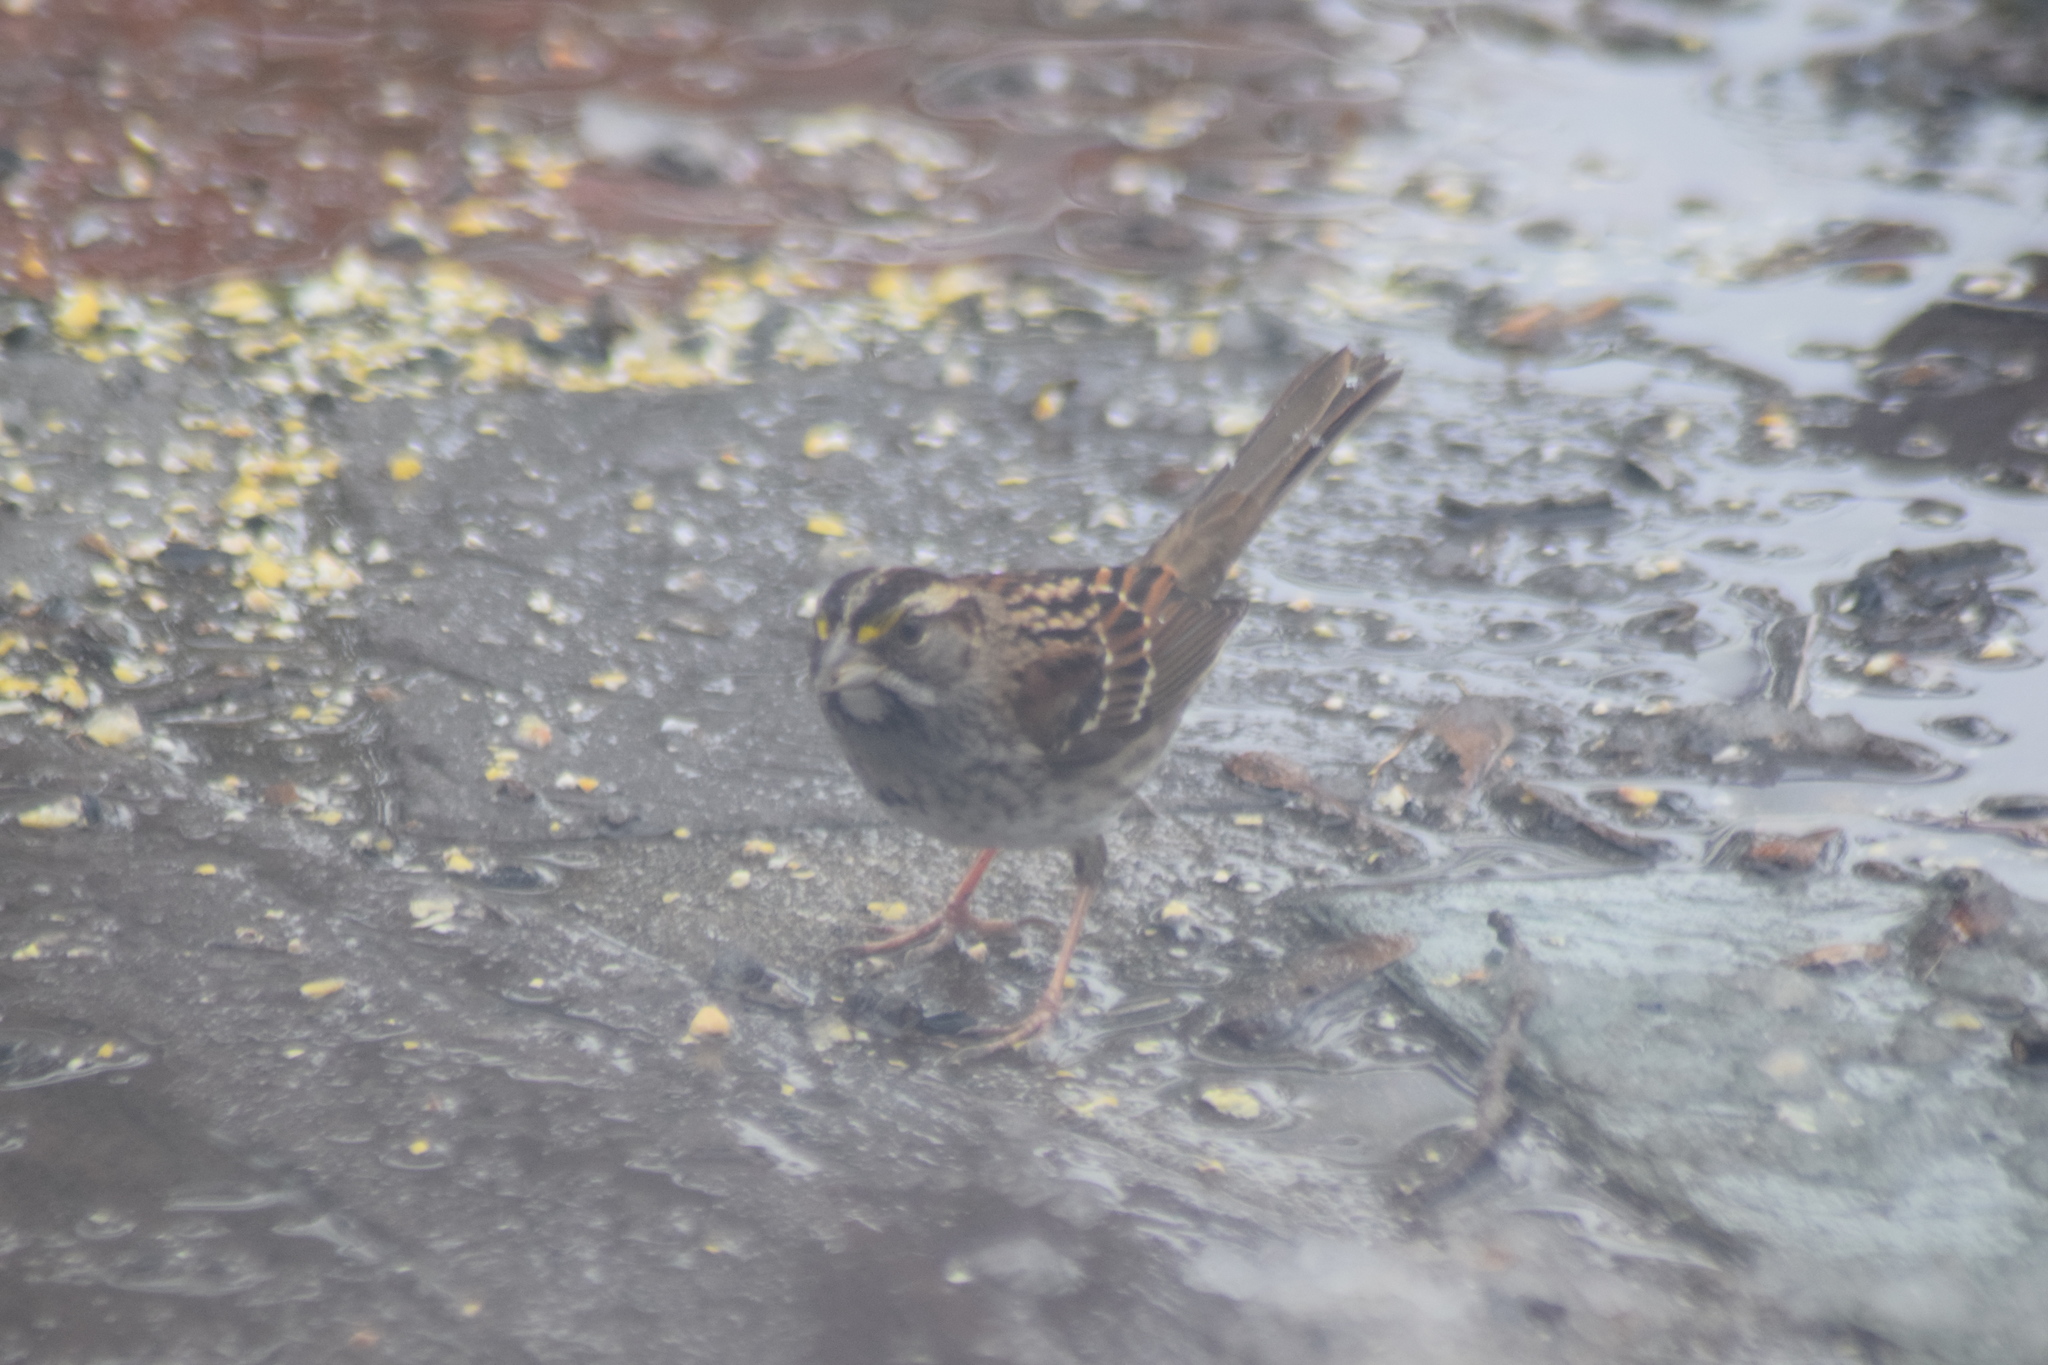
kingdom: Animalia
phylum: Chordata
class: Aves
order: Passeriformes
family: Passerellidae
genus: Zonotrichia
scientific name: Zonotrichia albicollis
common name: White-throated sparrow
